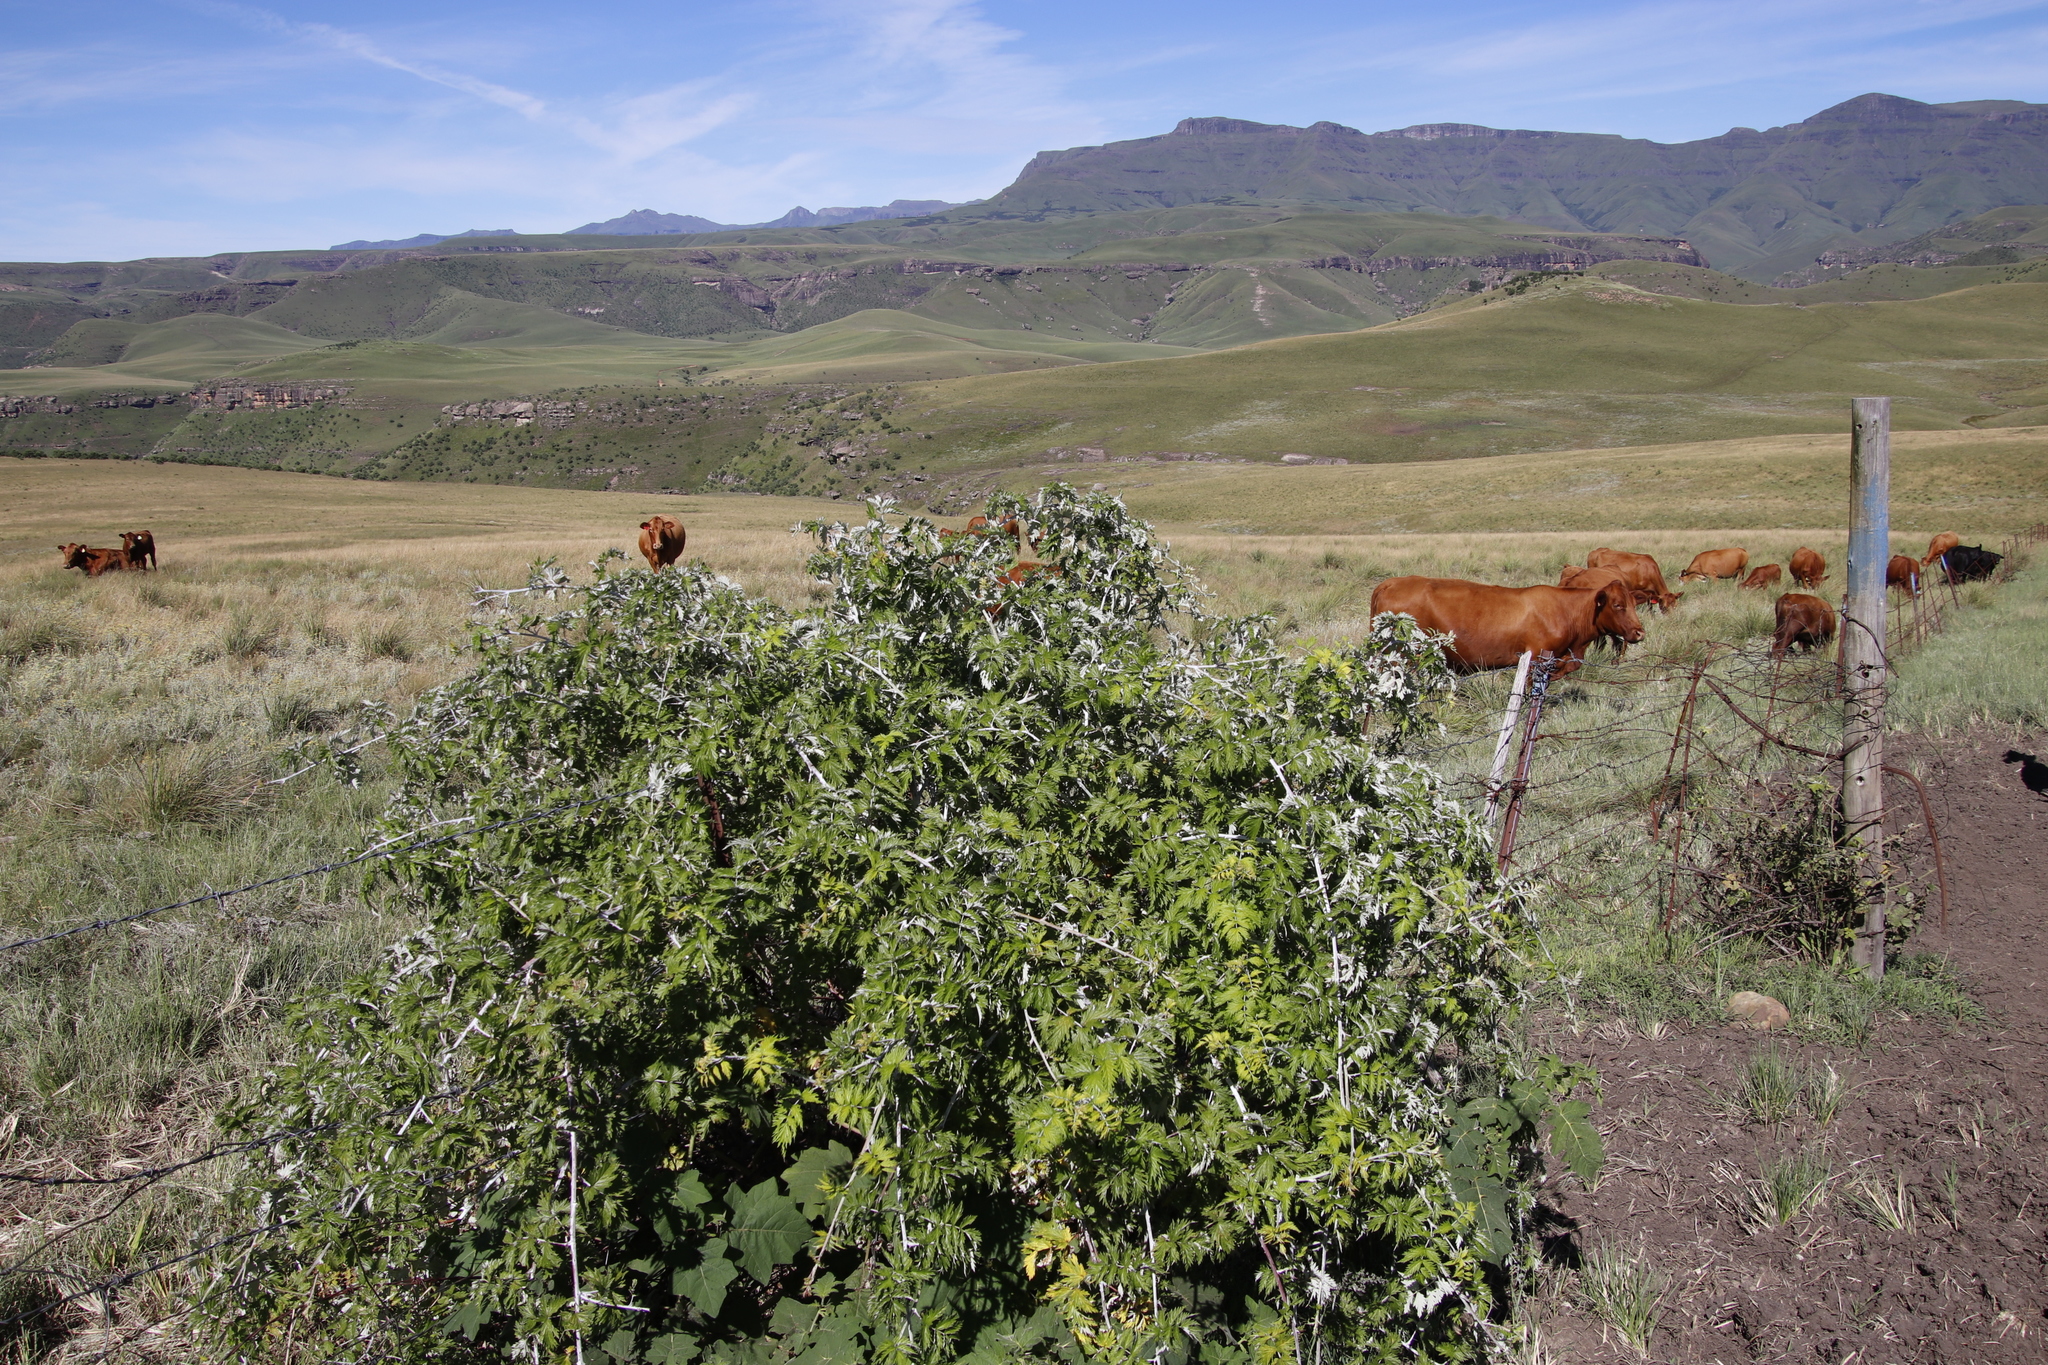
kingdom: Plantae
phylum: Tracheophyta
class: Magnoliopsida
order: Rosales
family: Rosaceae
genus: Rubus
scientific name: Rubus ludwigii
